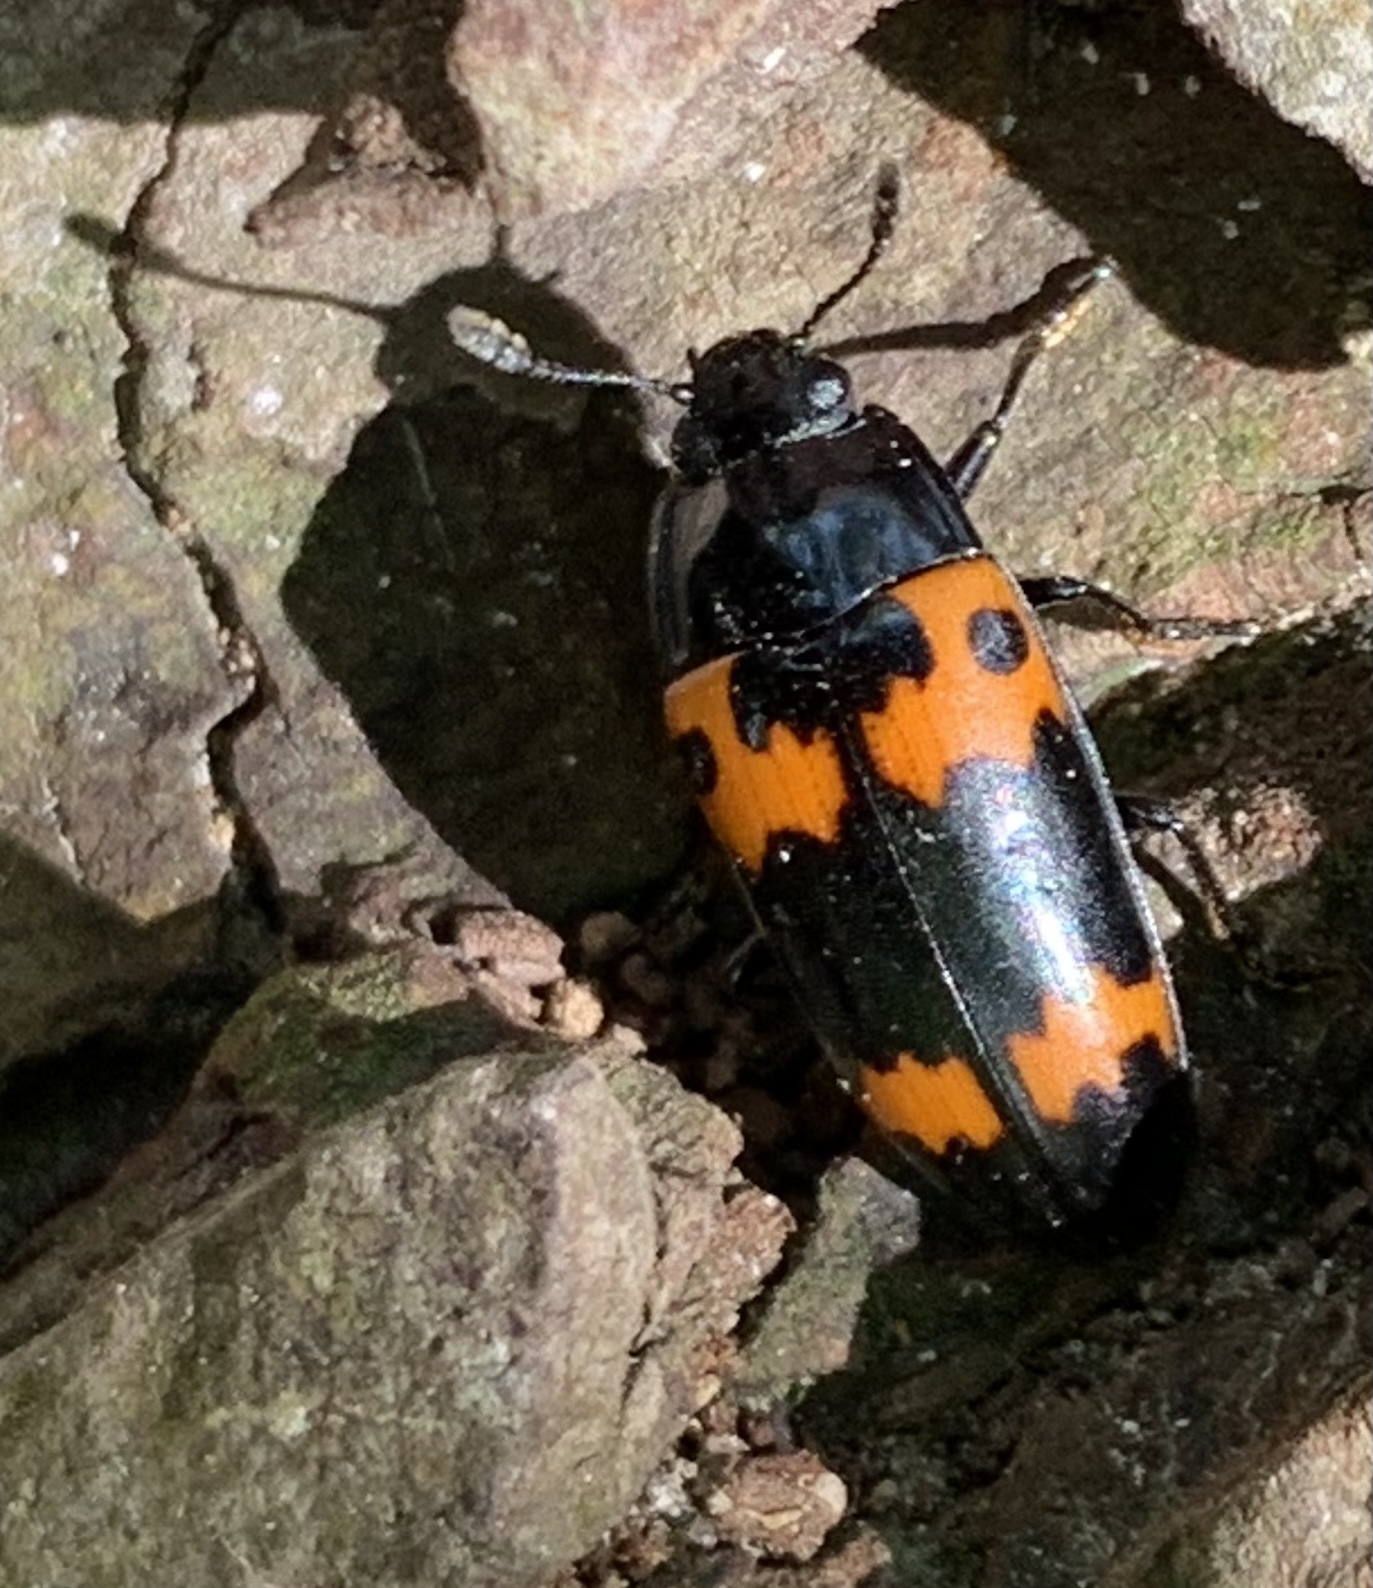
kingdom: Animalia
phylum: Arthropoda
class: Insecta
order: Coleoptera
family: Erotylidae
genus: Megalodacne
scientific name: Megalodacne fasciata
